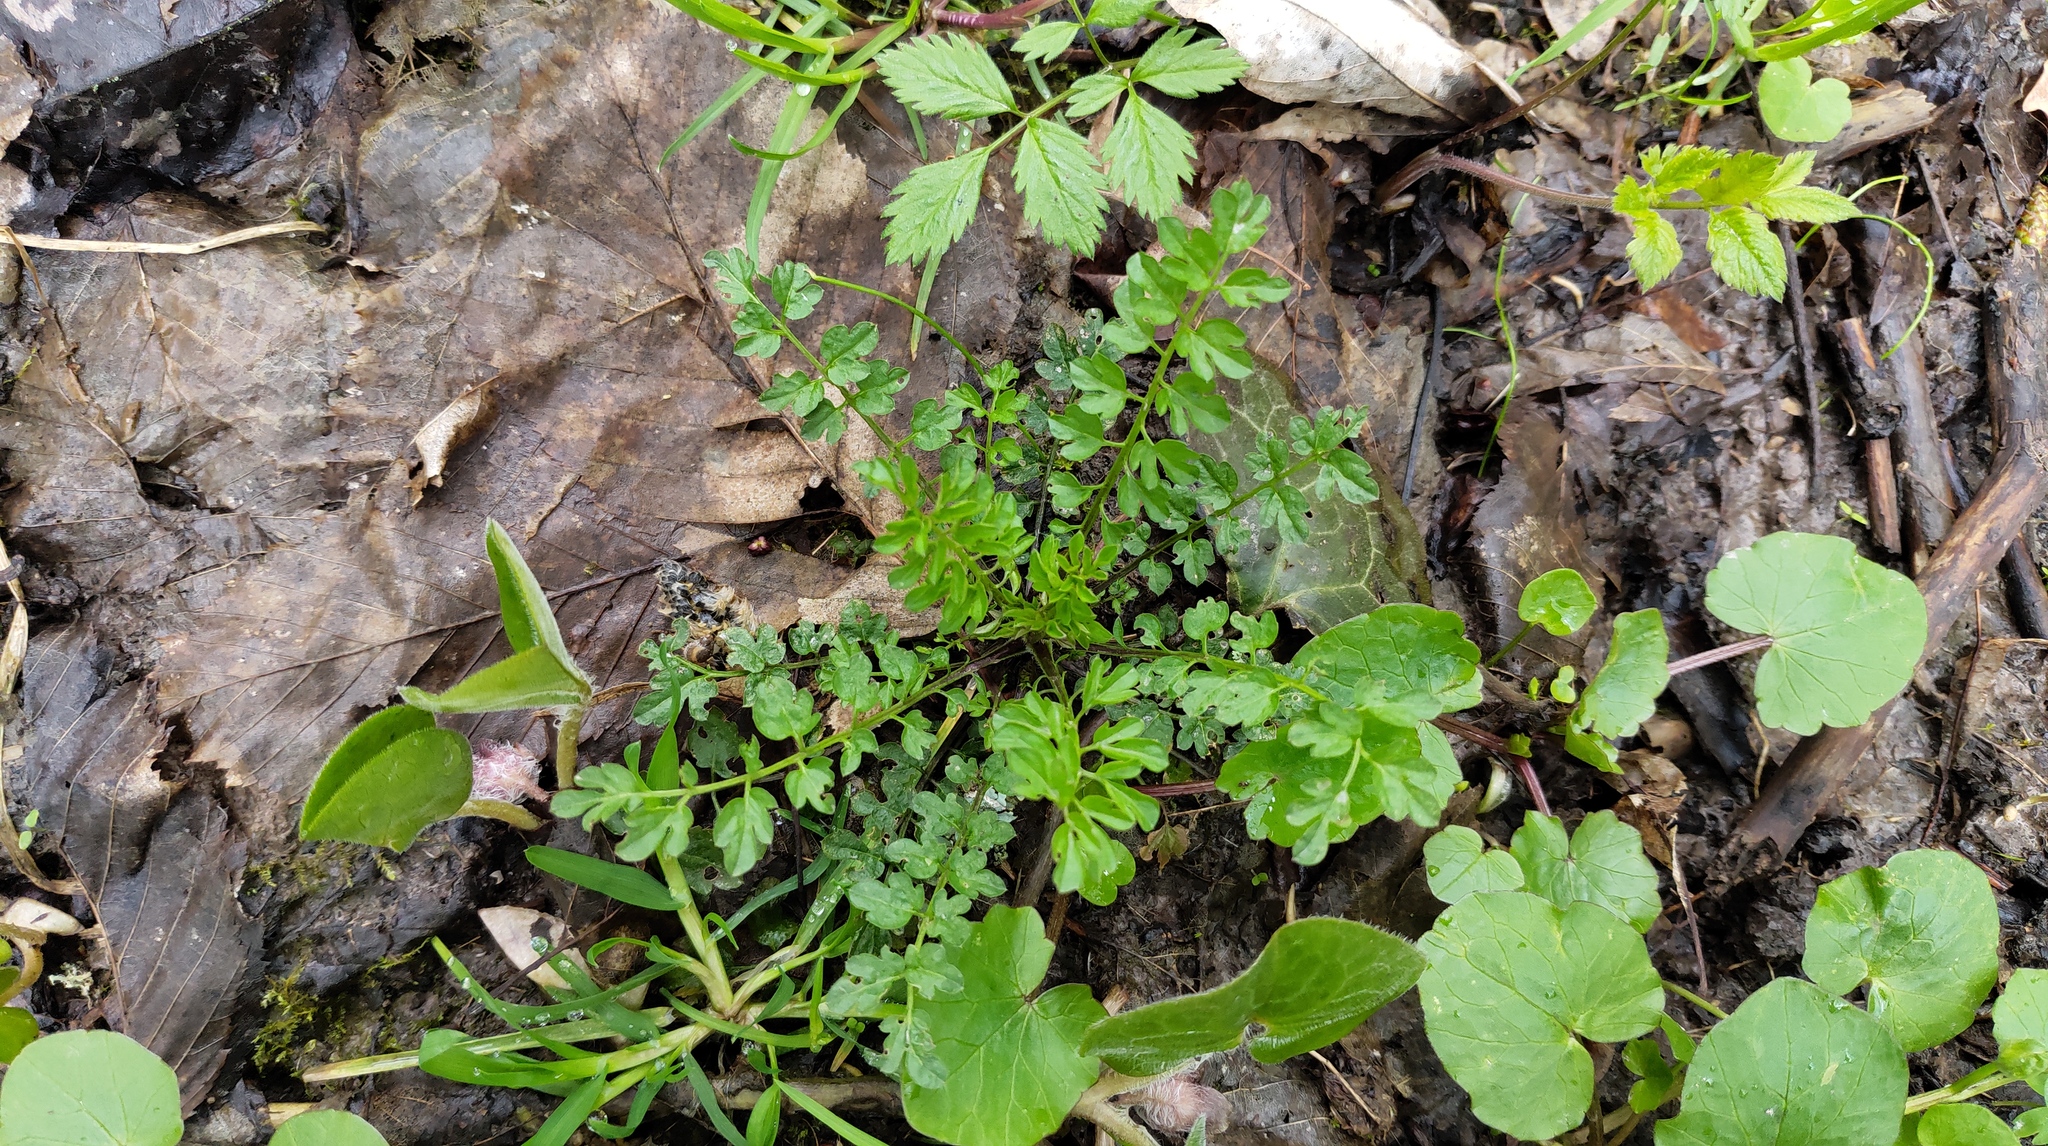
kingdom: Plantae
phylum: Tracheophyta
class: Magnoliopsida
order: Brassicales
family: Brassicaceae
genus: Cardamine
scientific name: Cardamine impatiens
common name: Narrow-leaved bitter-cress
